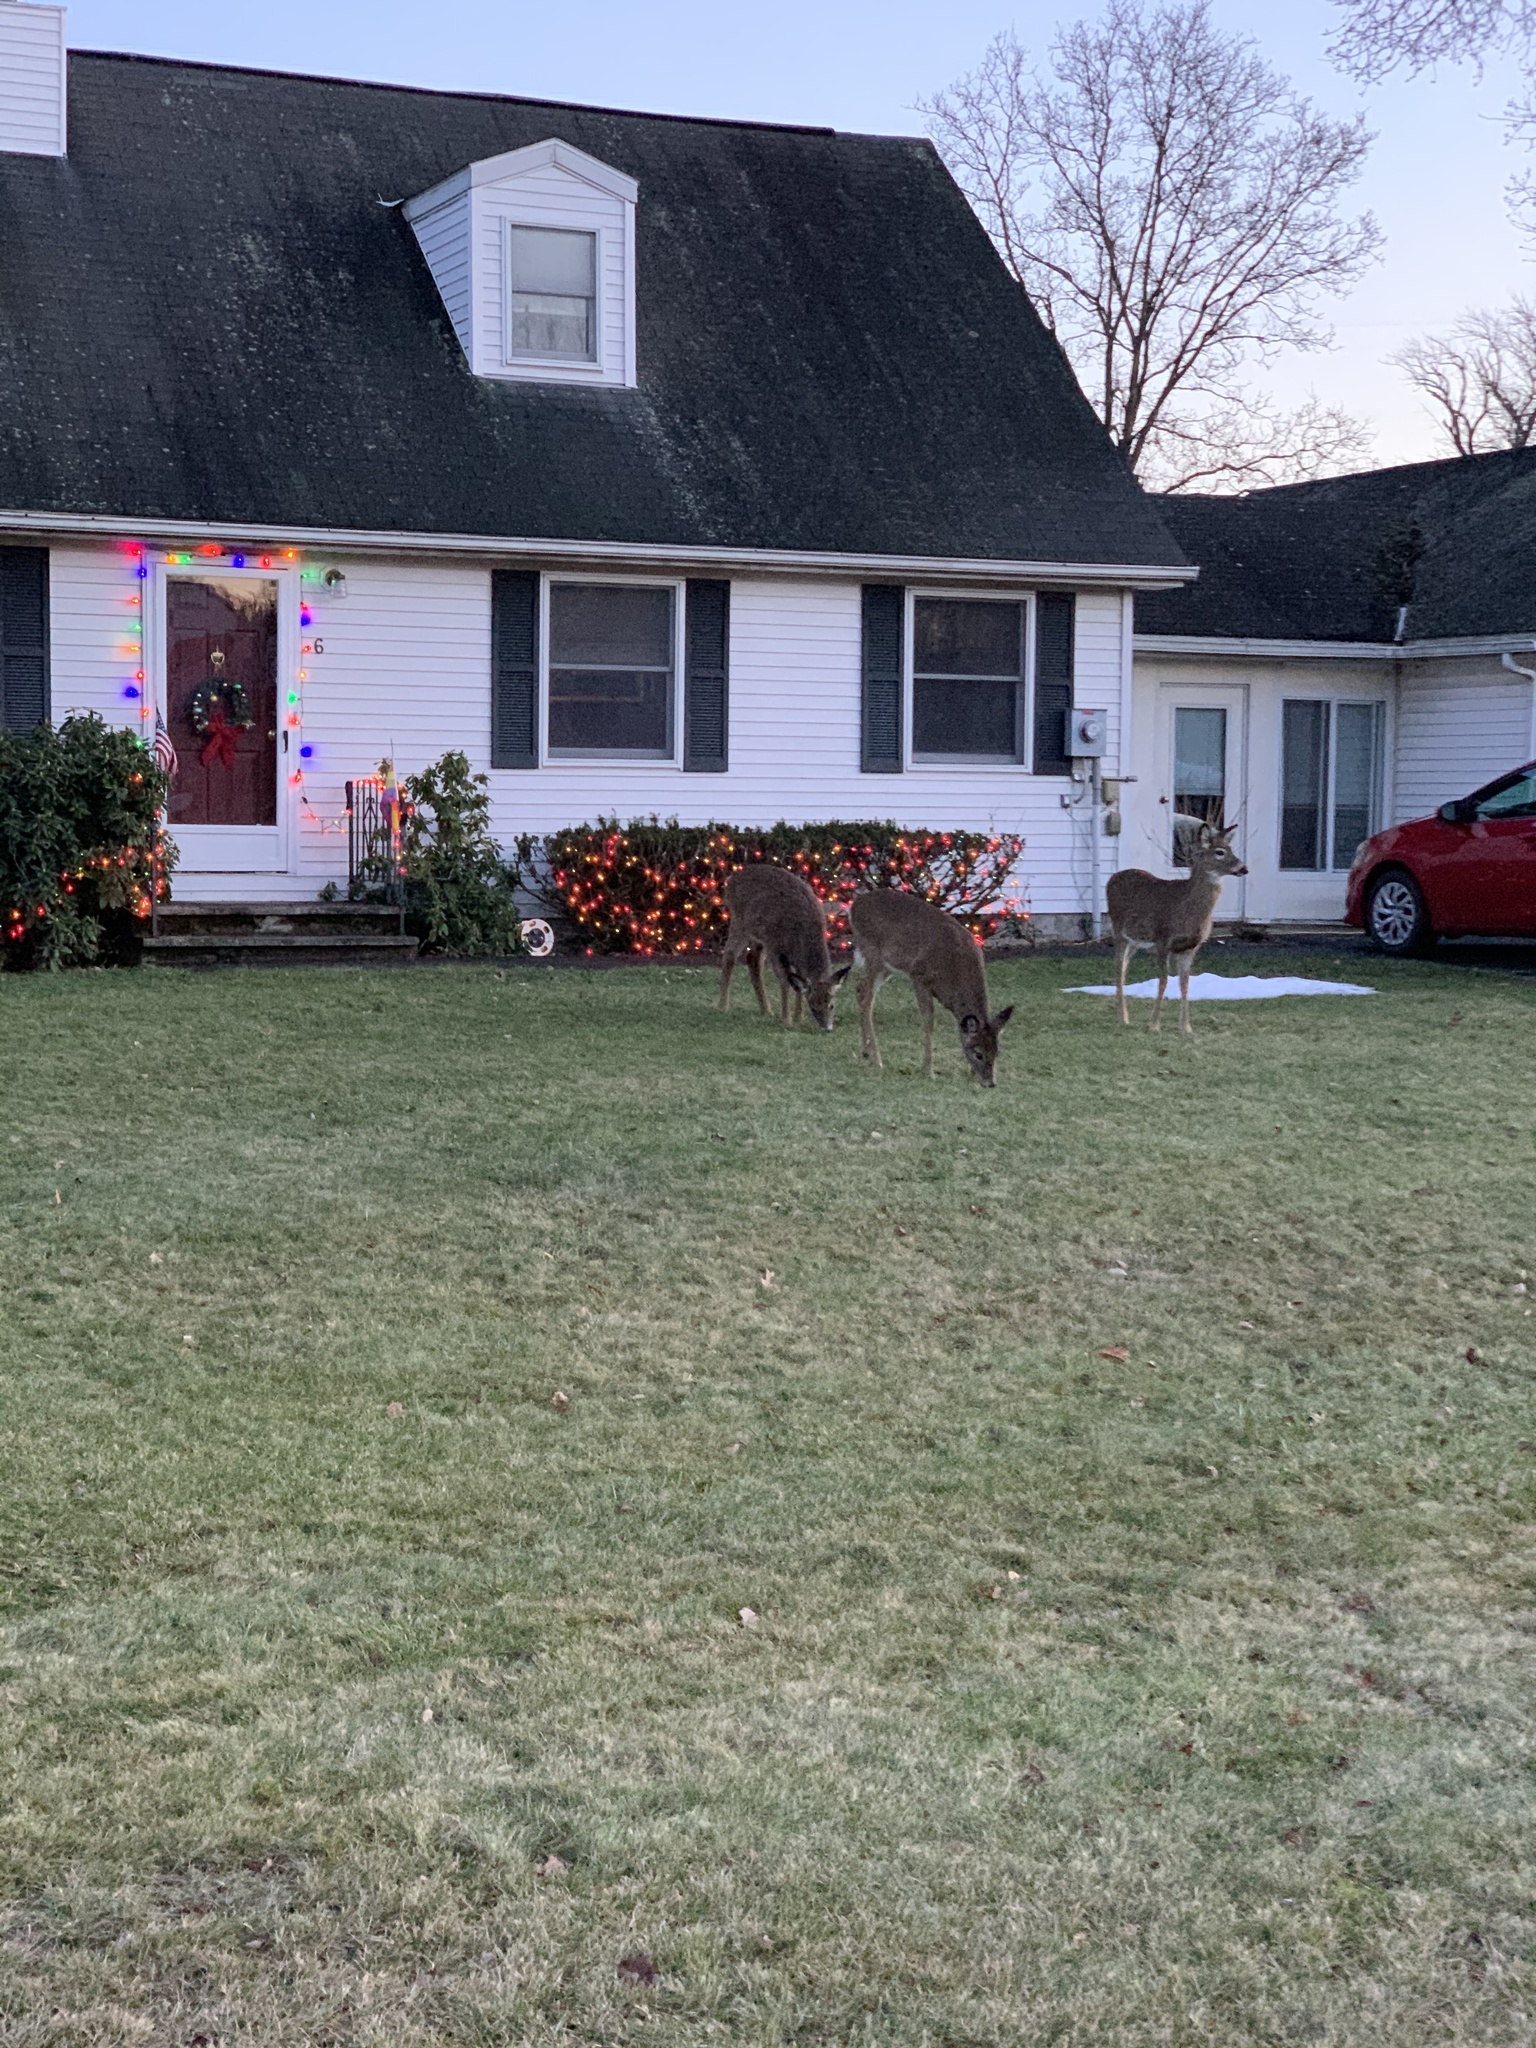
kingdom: Animalia
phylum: Chordata
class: Mammalia
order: Artiodactyla
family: Cervidae
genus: Odocoileus
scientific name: Odocoileus virginianus
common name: White-tailed deer
